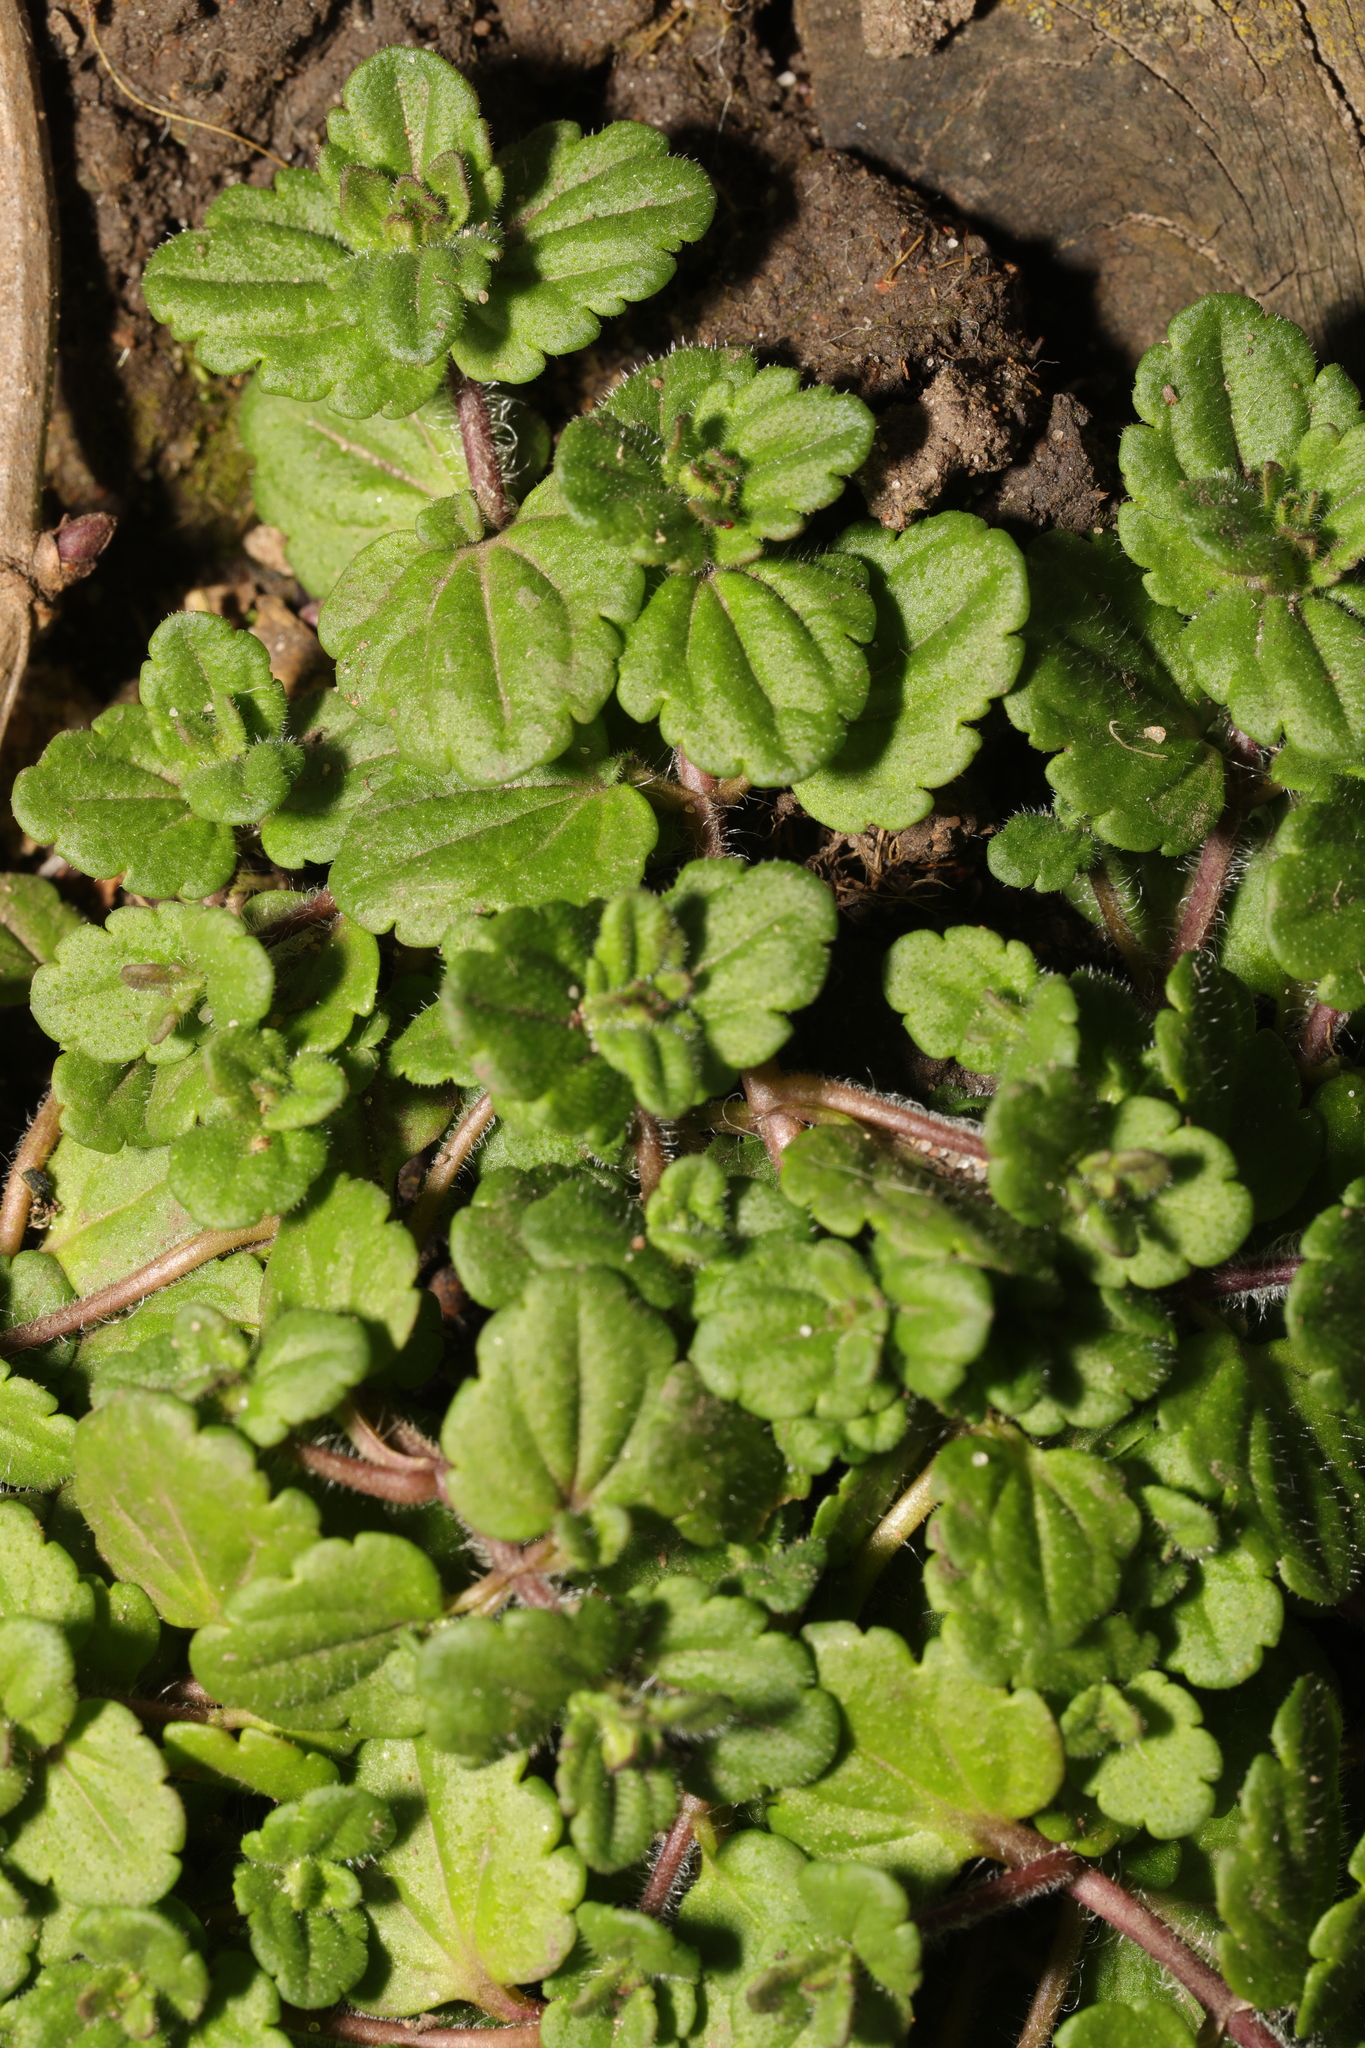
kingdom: Plantae
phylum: Tracheophyta
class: Magnoliopsida
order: Lamiales
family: Plantaginaceae
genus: Veronica
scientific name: Veronica arvensis
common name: Corn speedwell
